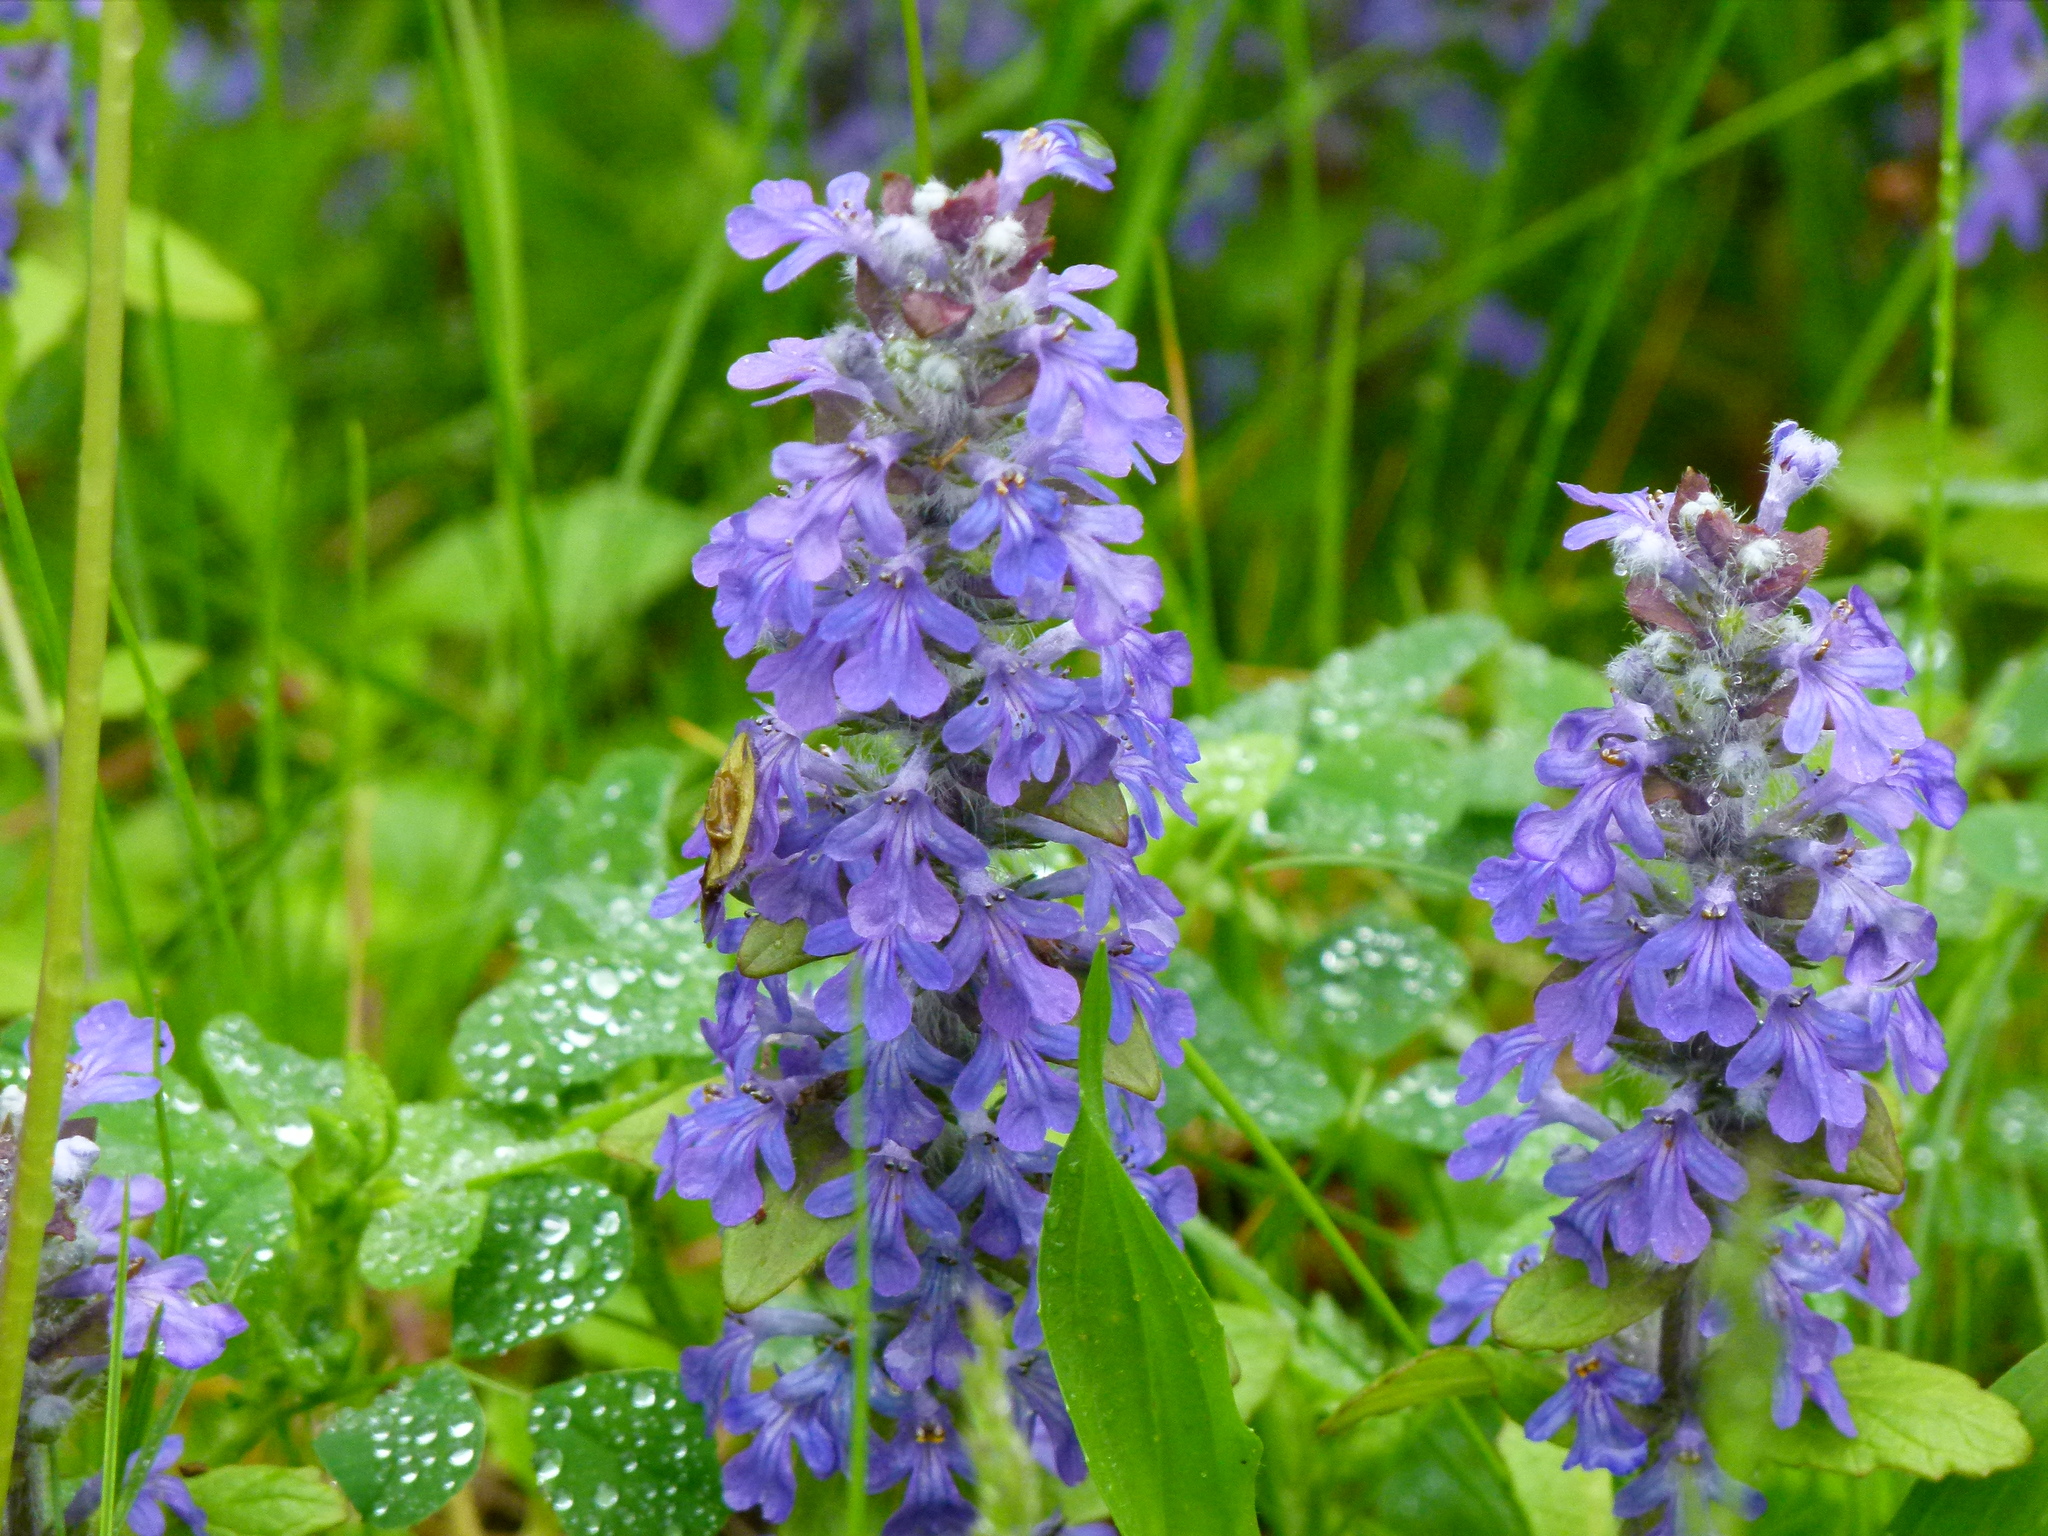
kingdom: Plantae
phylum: Tracheophyta
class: Magnoliopsida
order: Lamiales
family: Lamiaceae
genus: Ajuga
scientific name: Ajuga reptans
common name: Bugle
